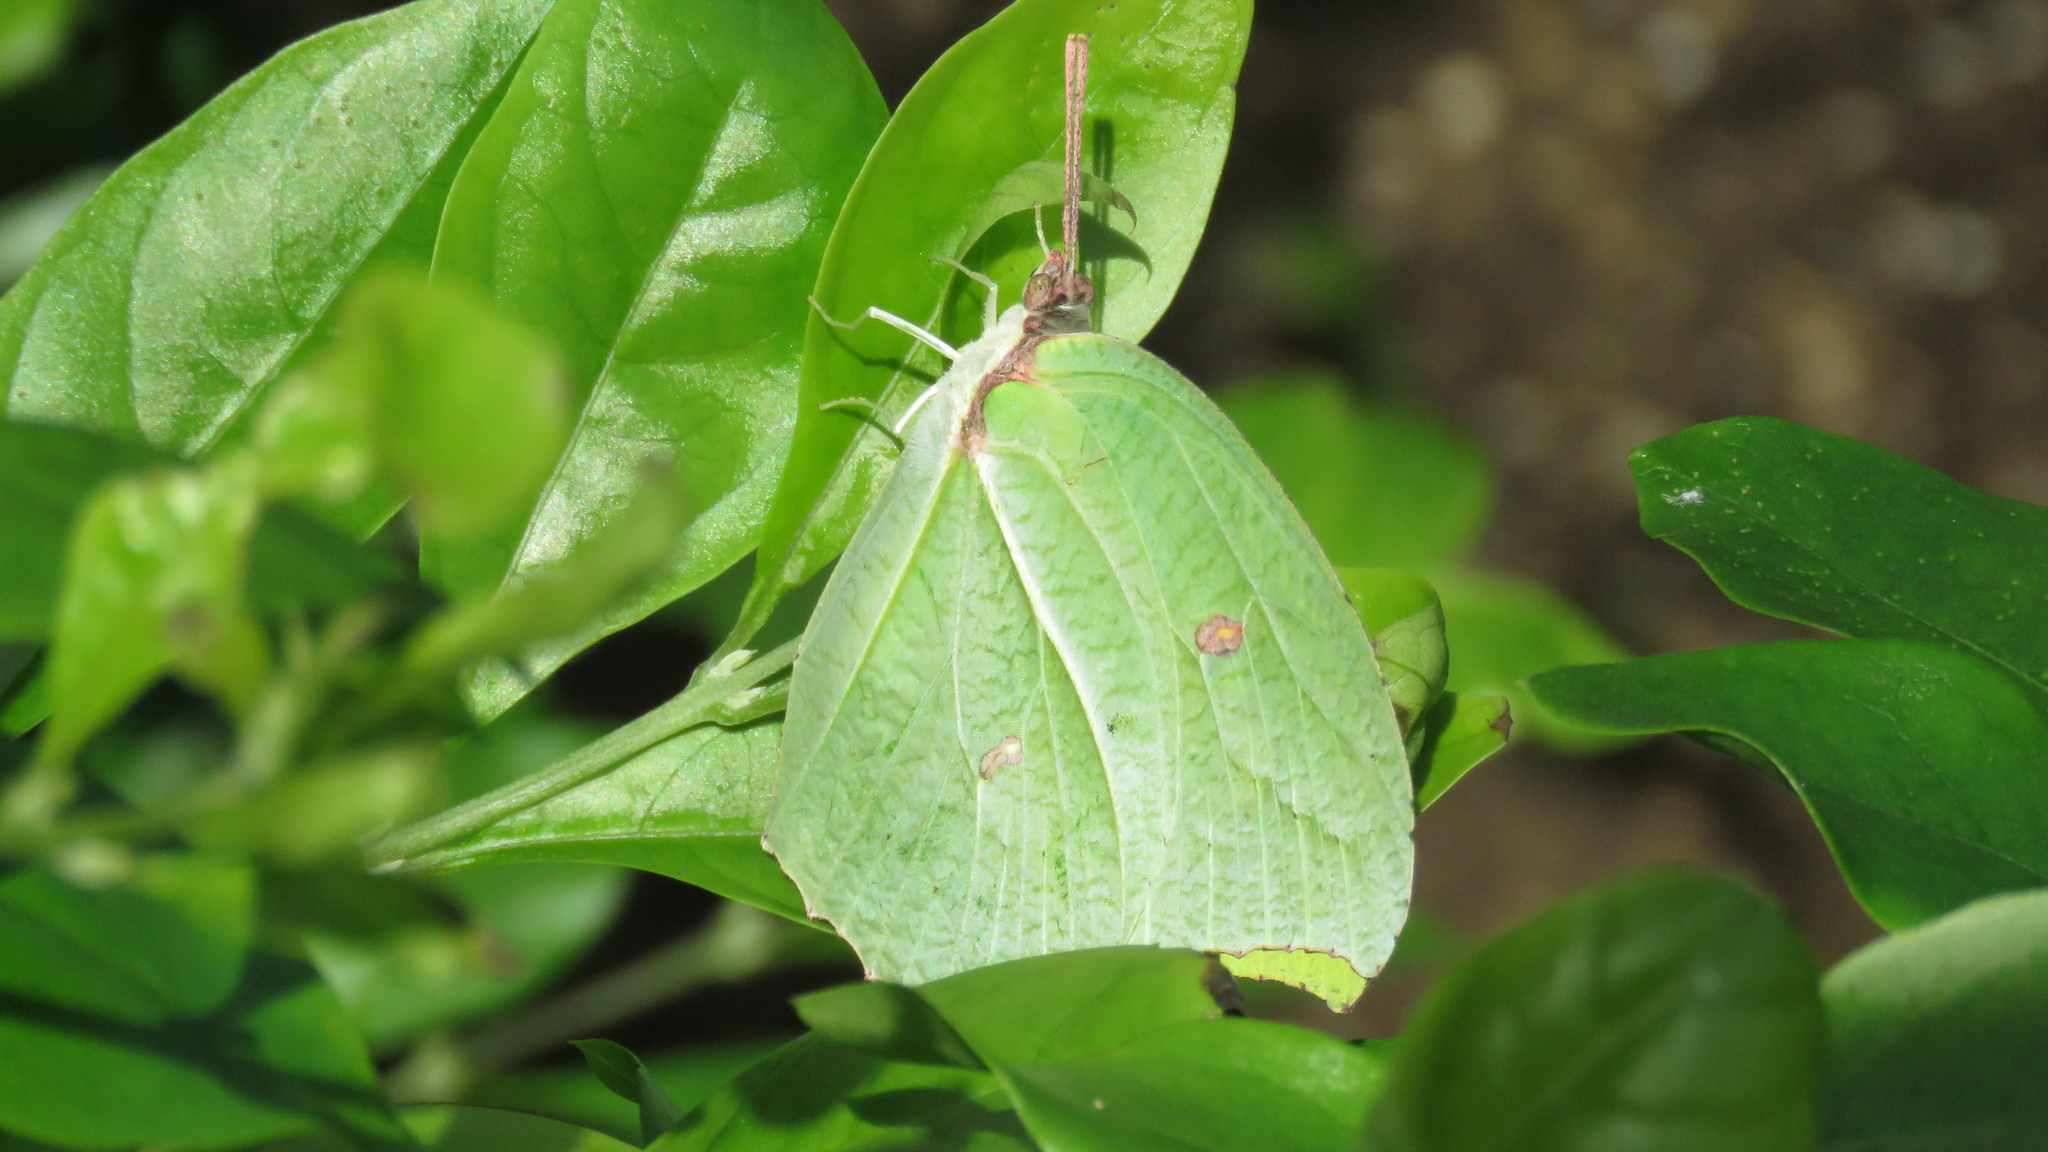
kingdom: Animalia
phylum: Arthropoda
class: Insecta
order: Lepidoptera
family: Pieridae
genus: Anteos
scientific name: Anteos clorinde
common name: White angled sulphur
